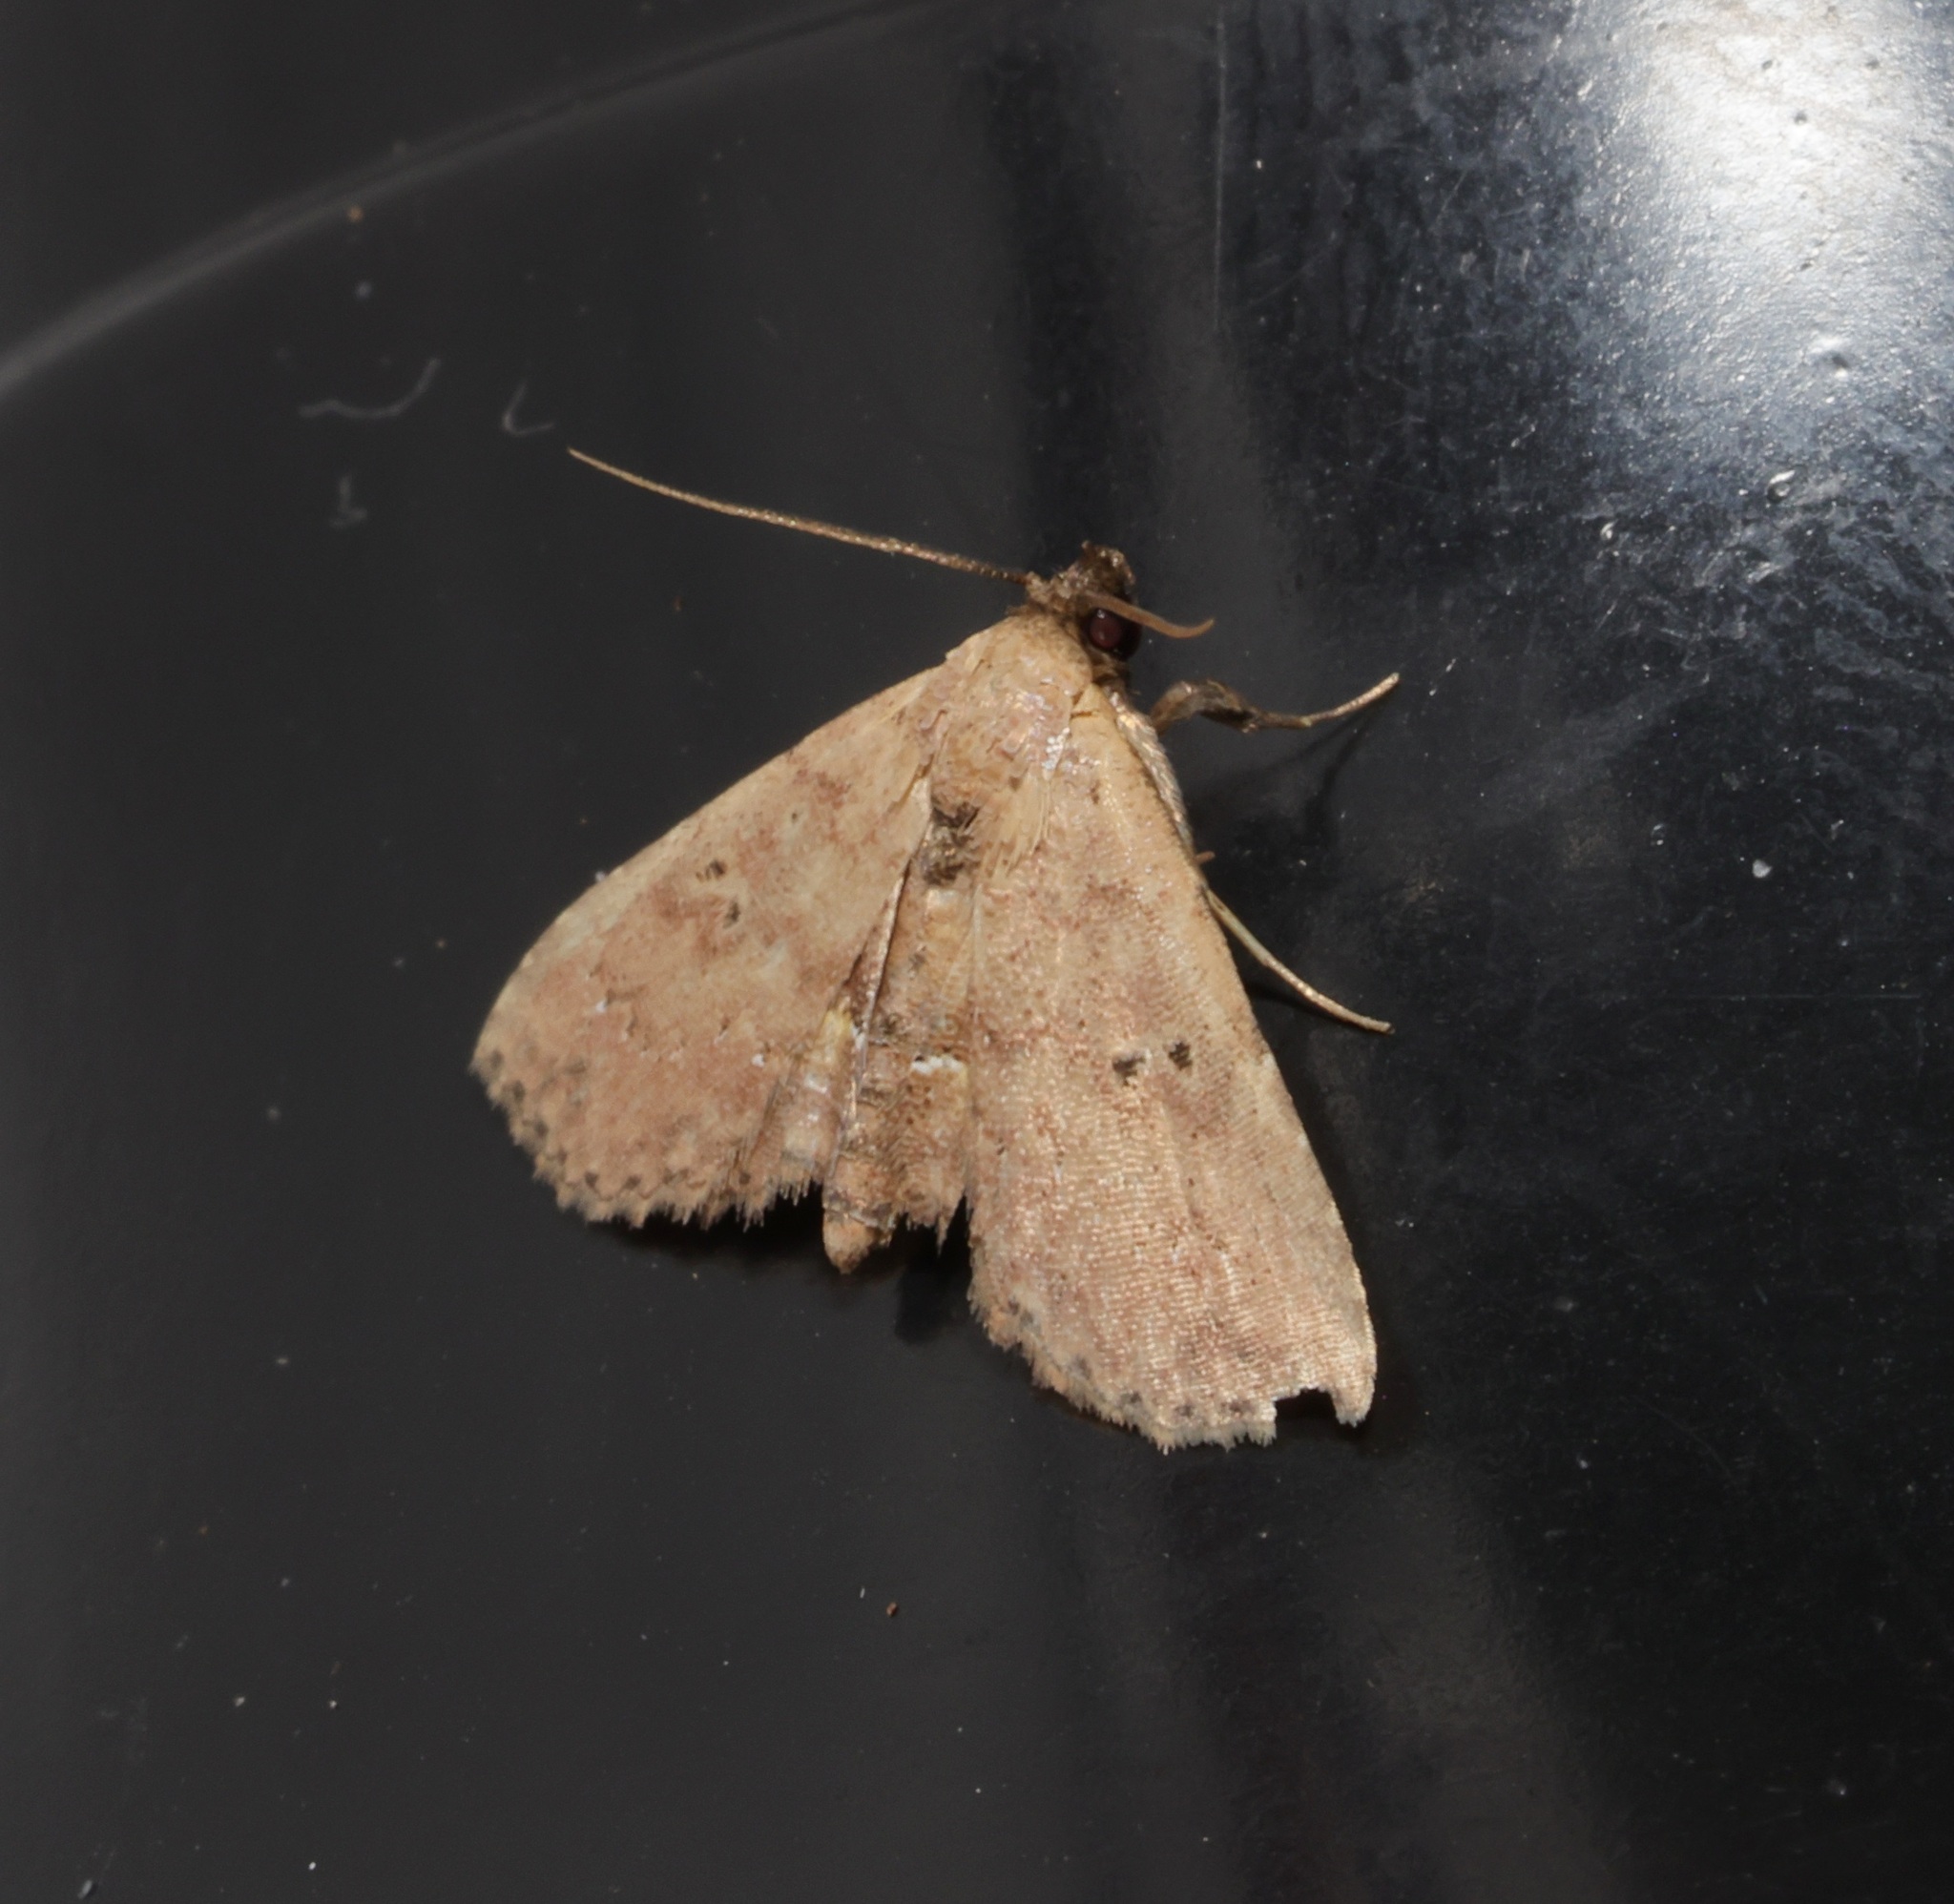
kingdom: Animalia
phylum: Arthropoda
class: Insecta
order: Lepidoptera
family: Noctuidae
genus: Cerynea
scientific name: Cerynea discontenta
